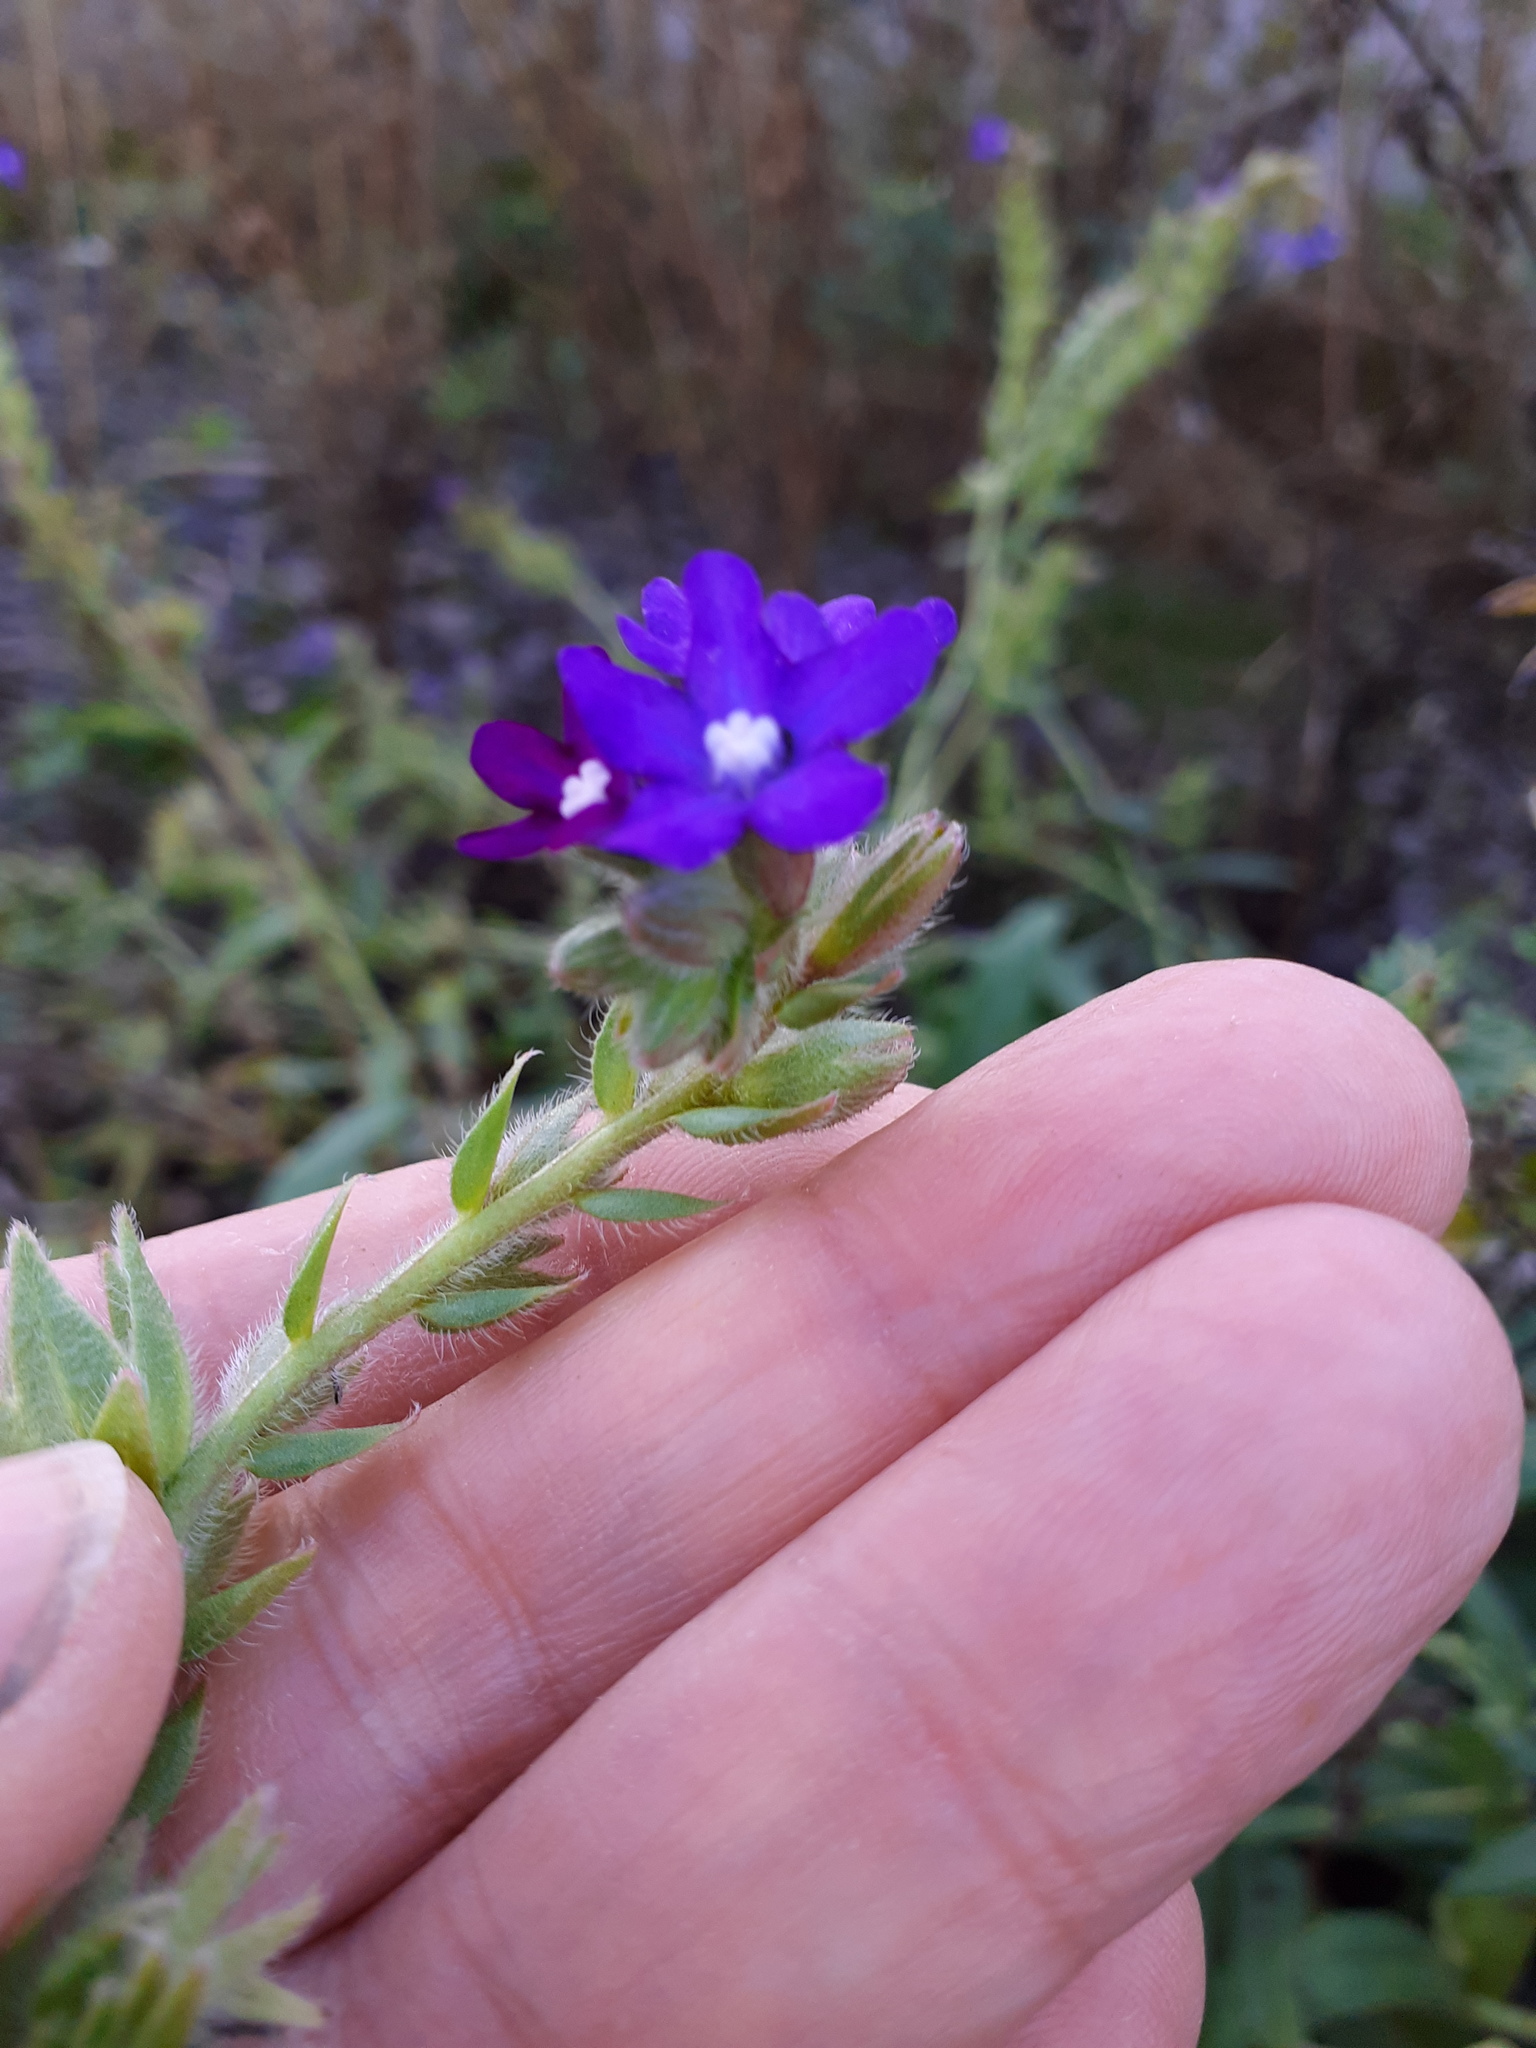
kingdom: Plantae
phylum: Tracheophyta
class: Magnoliopsida
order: Boraginales
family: Boraginaceae
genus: Anchusa
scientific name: Anchusa officinalis
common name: Alkanet
